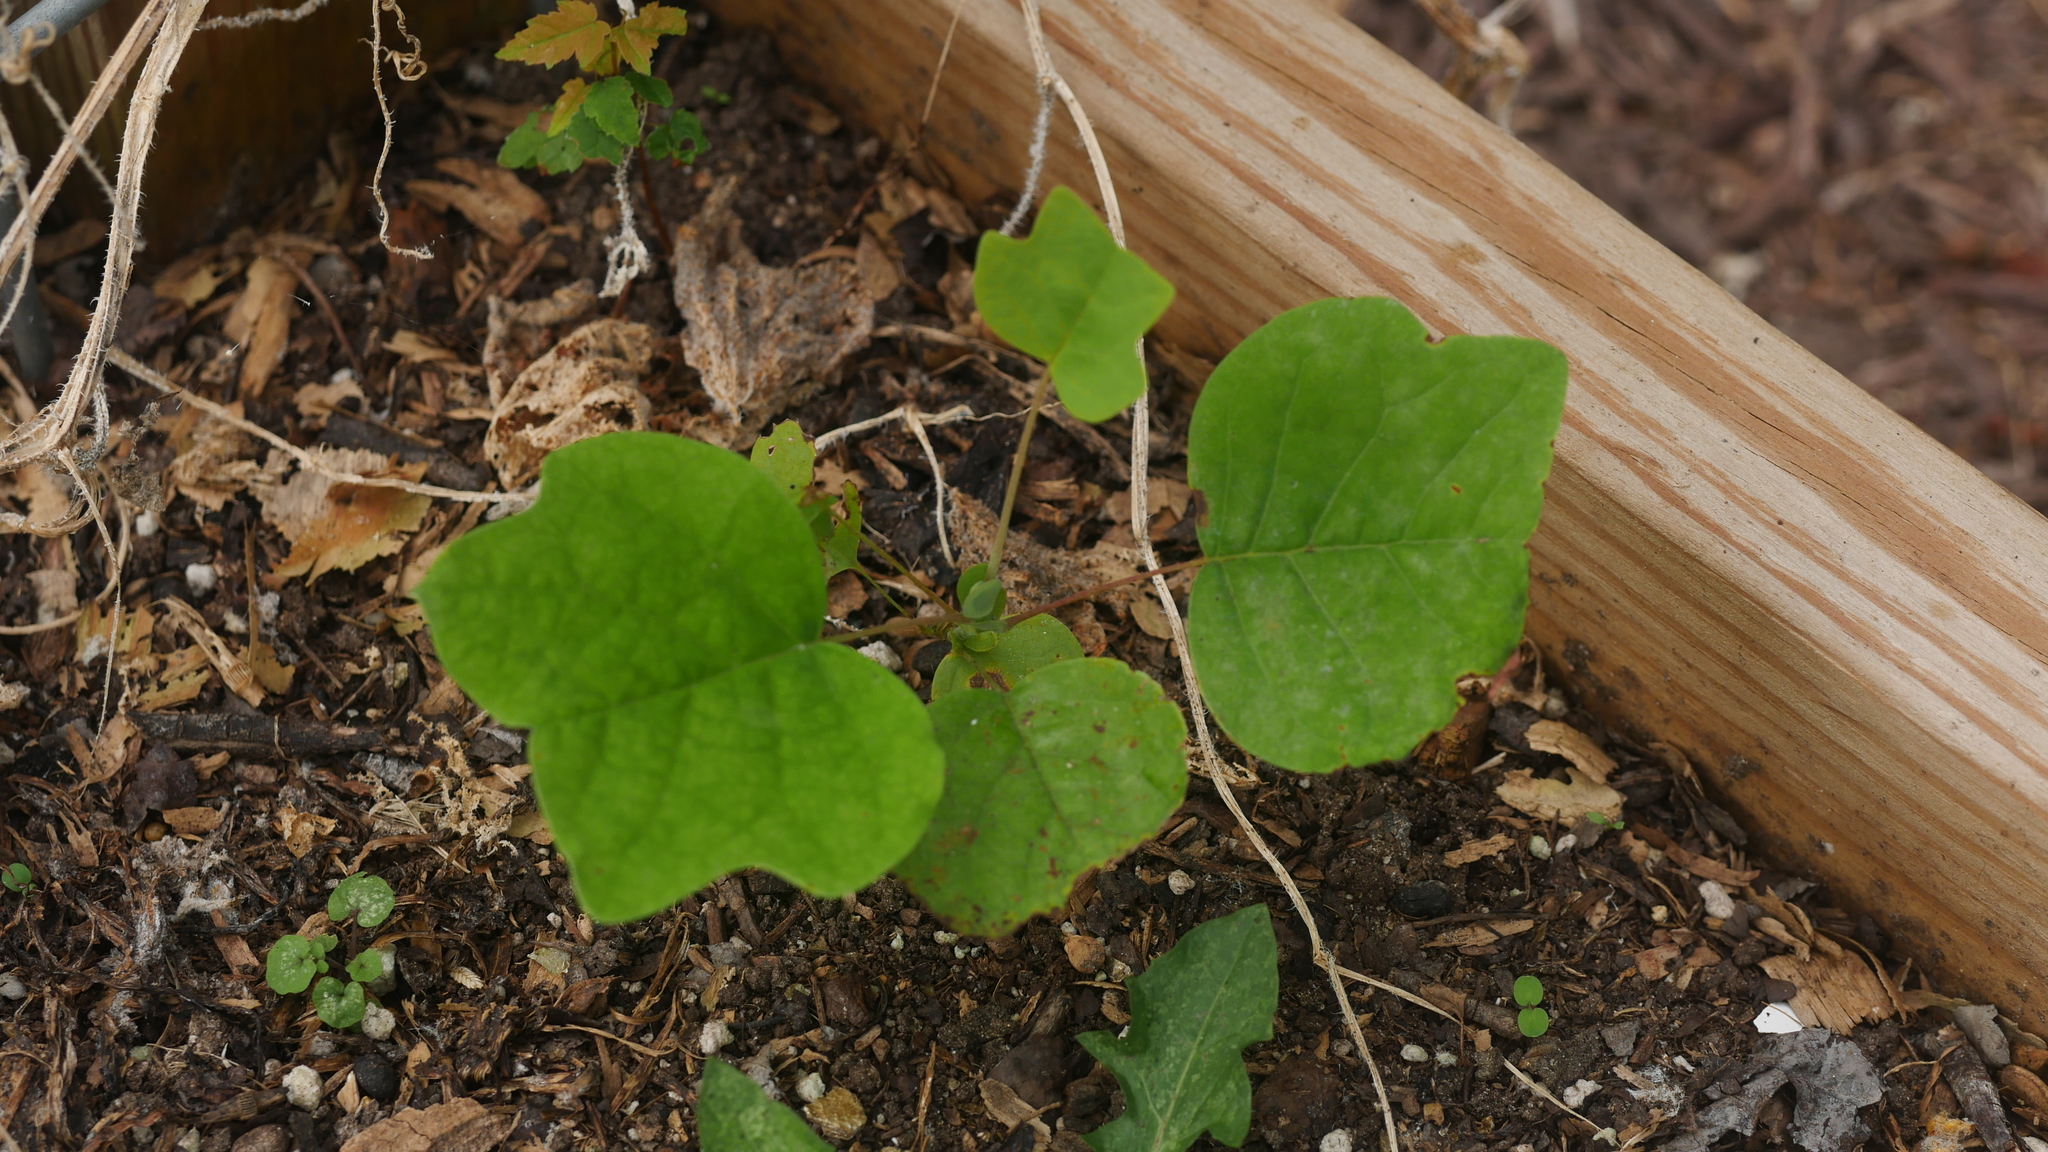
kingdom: Plantae
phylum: Tracheophyta
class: Magnoliopsida
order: Magnoliales
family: Magnoliaceae
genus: Liriodendron
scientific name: Liriodendron tulipifera
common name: Tulip tree
